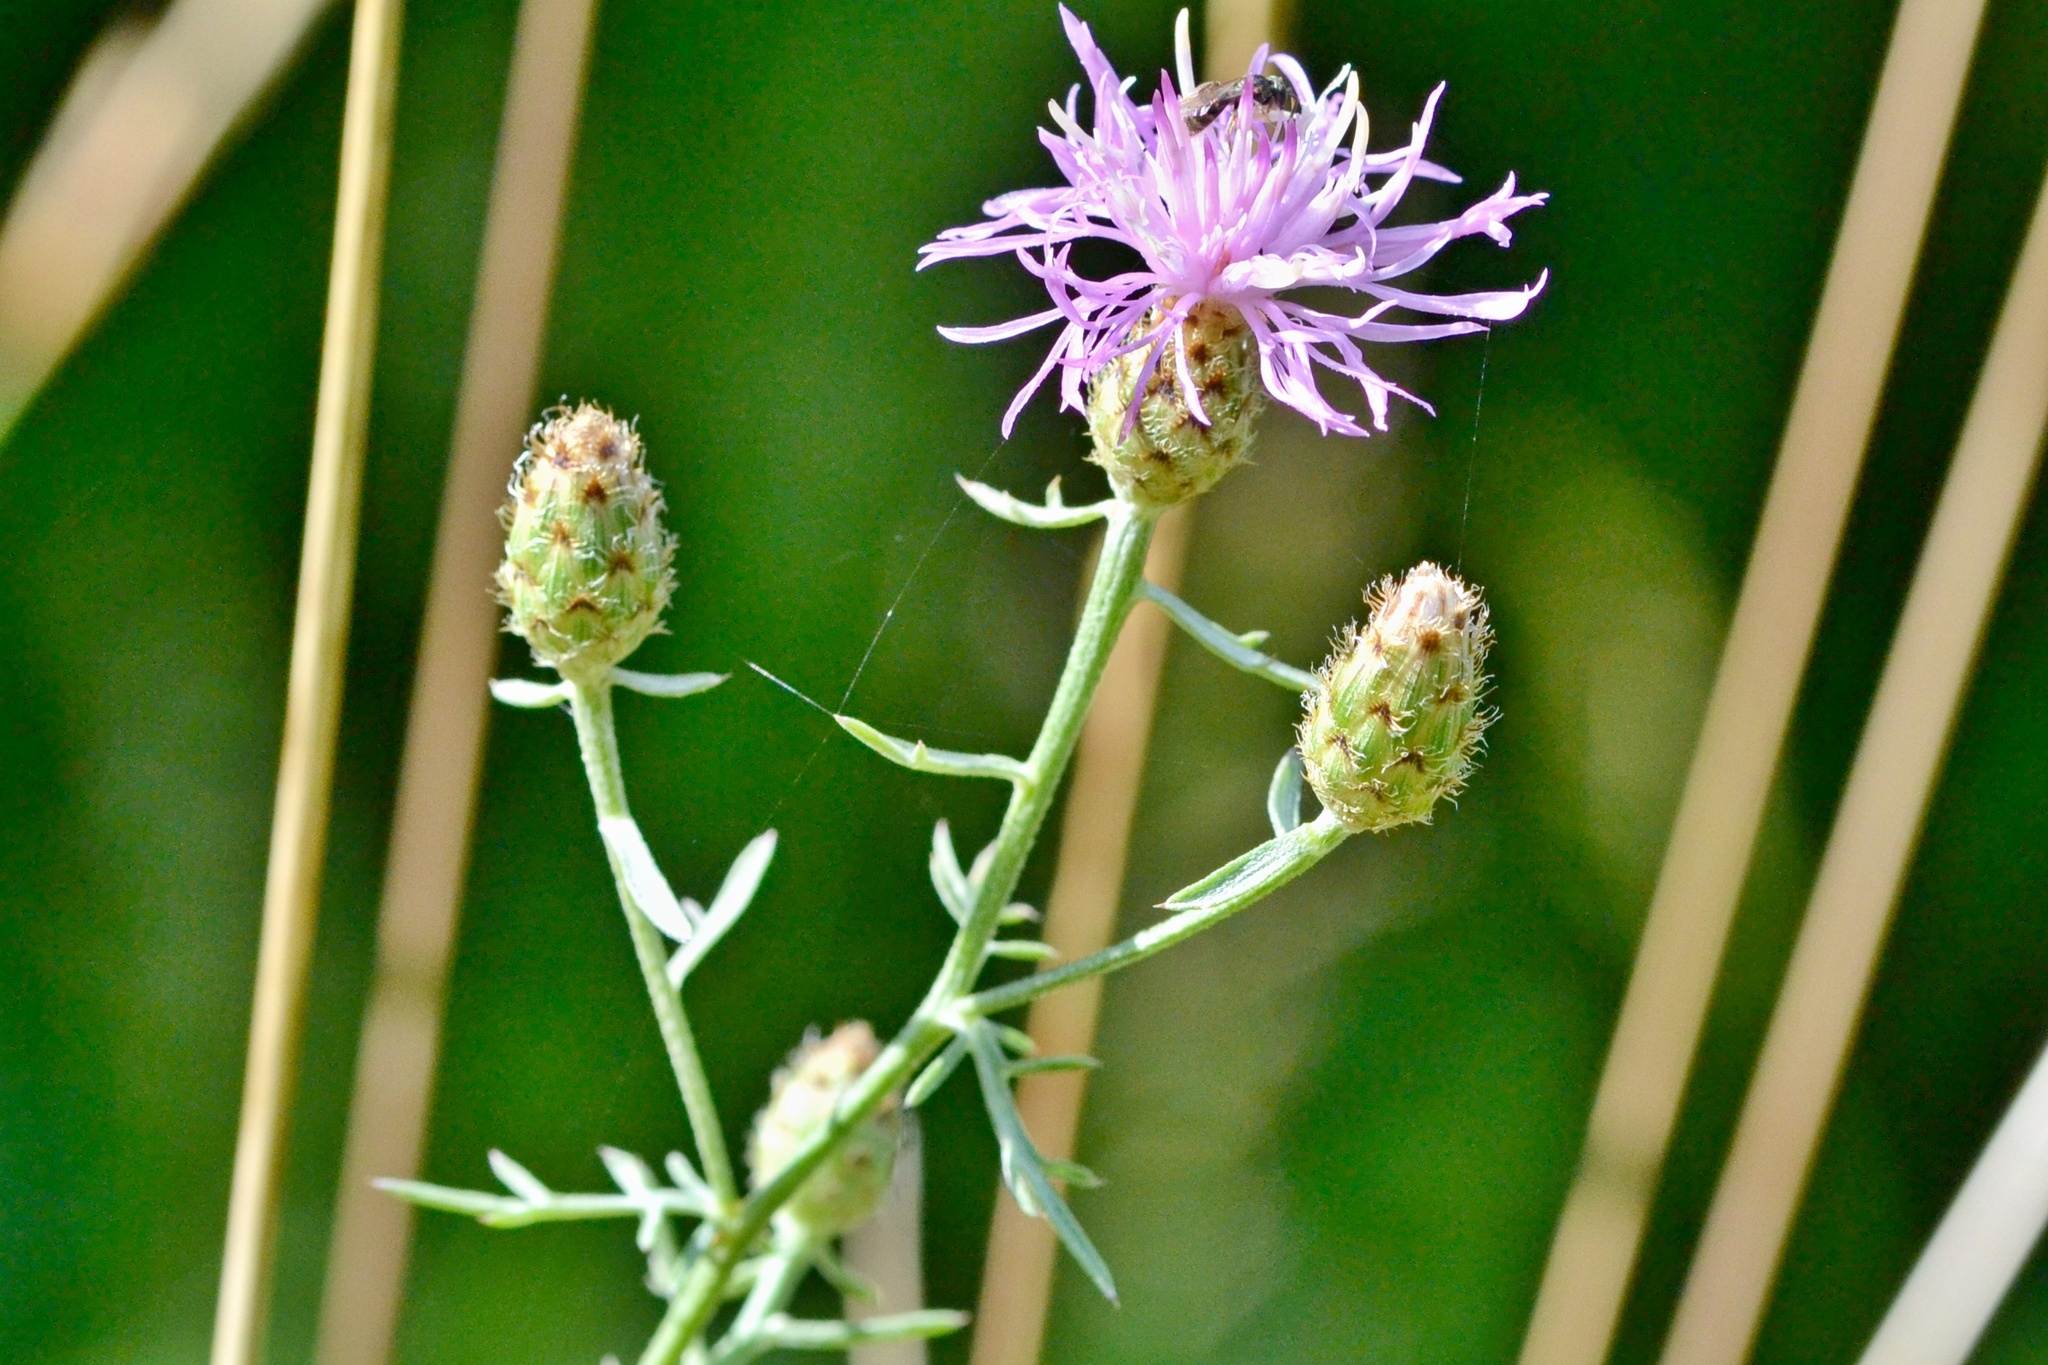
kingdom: Plantae
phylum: Tracheophyta
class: Magnoliopsida
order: Asterales
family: Asteraceae
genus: Centaurea
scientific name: Centaurea stoebe
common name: Spotted knapweed
